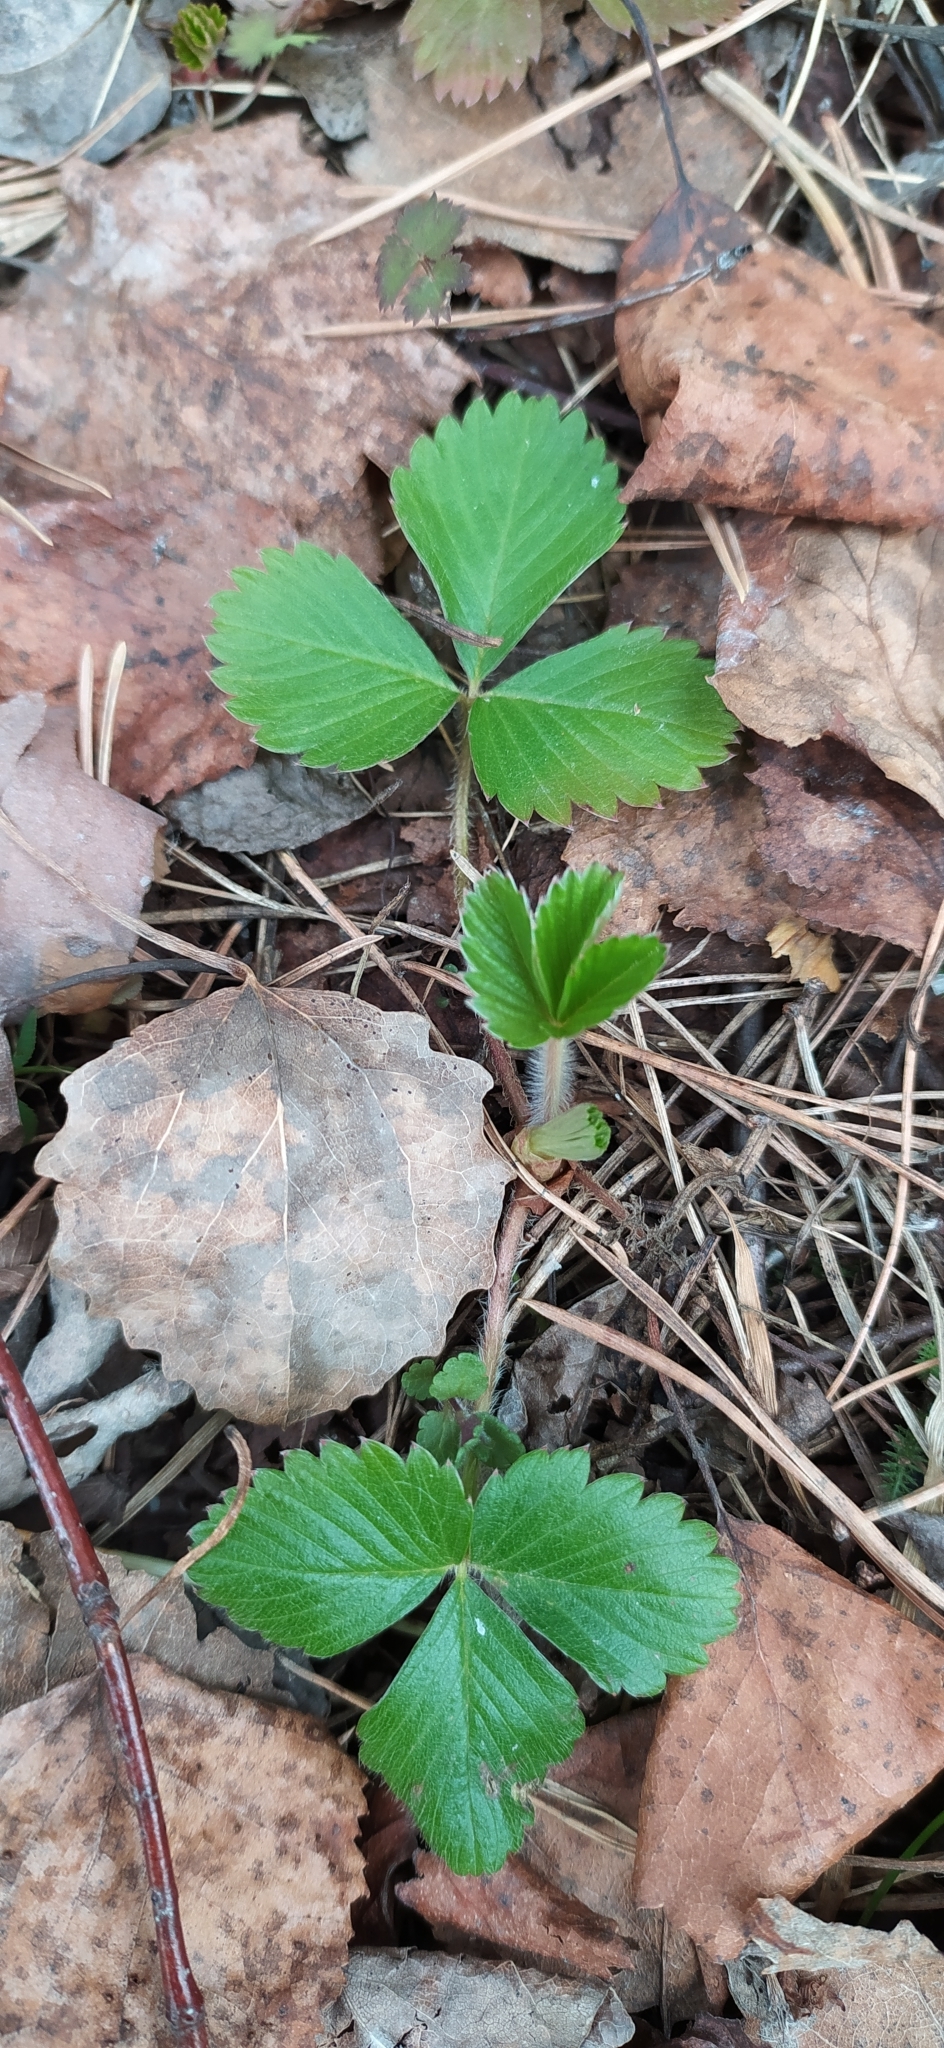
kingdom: Plantae
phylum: Tracheophyta
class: Magnoliopsida
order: Rosales
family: Rosaceae
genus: Fragaria
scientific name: Fragaria vesca
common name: Wild strawberry
